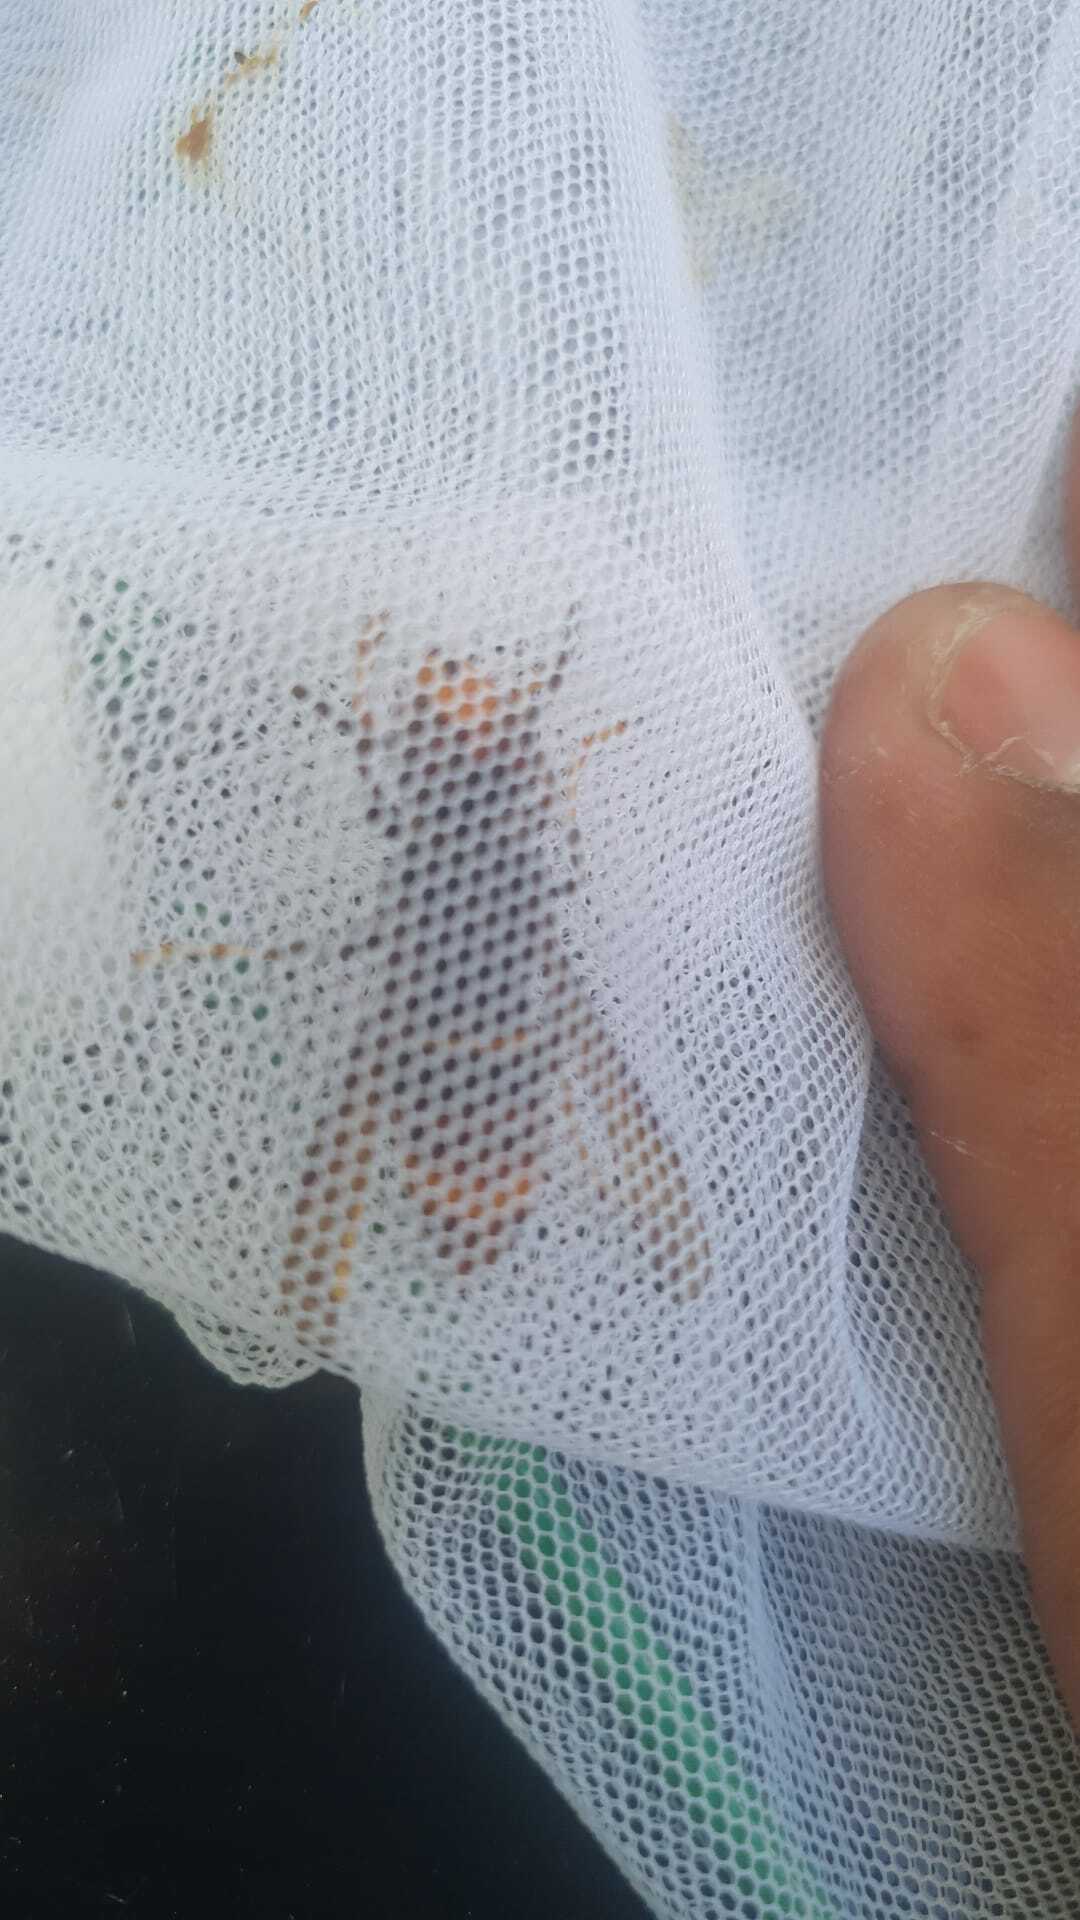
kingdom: Animalia
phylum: Arthropoda
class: Insecta
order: Hymenoptera
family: Vespidae
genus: Vespa
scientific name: Vespa velutina
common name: Asian hornet
